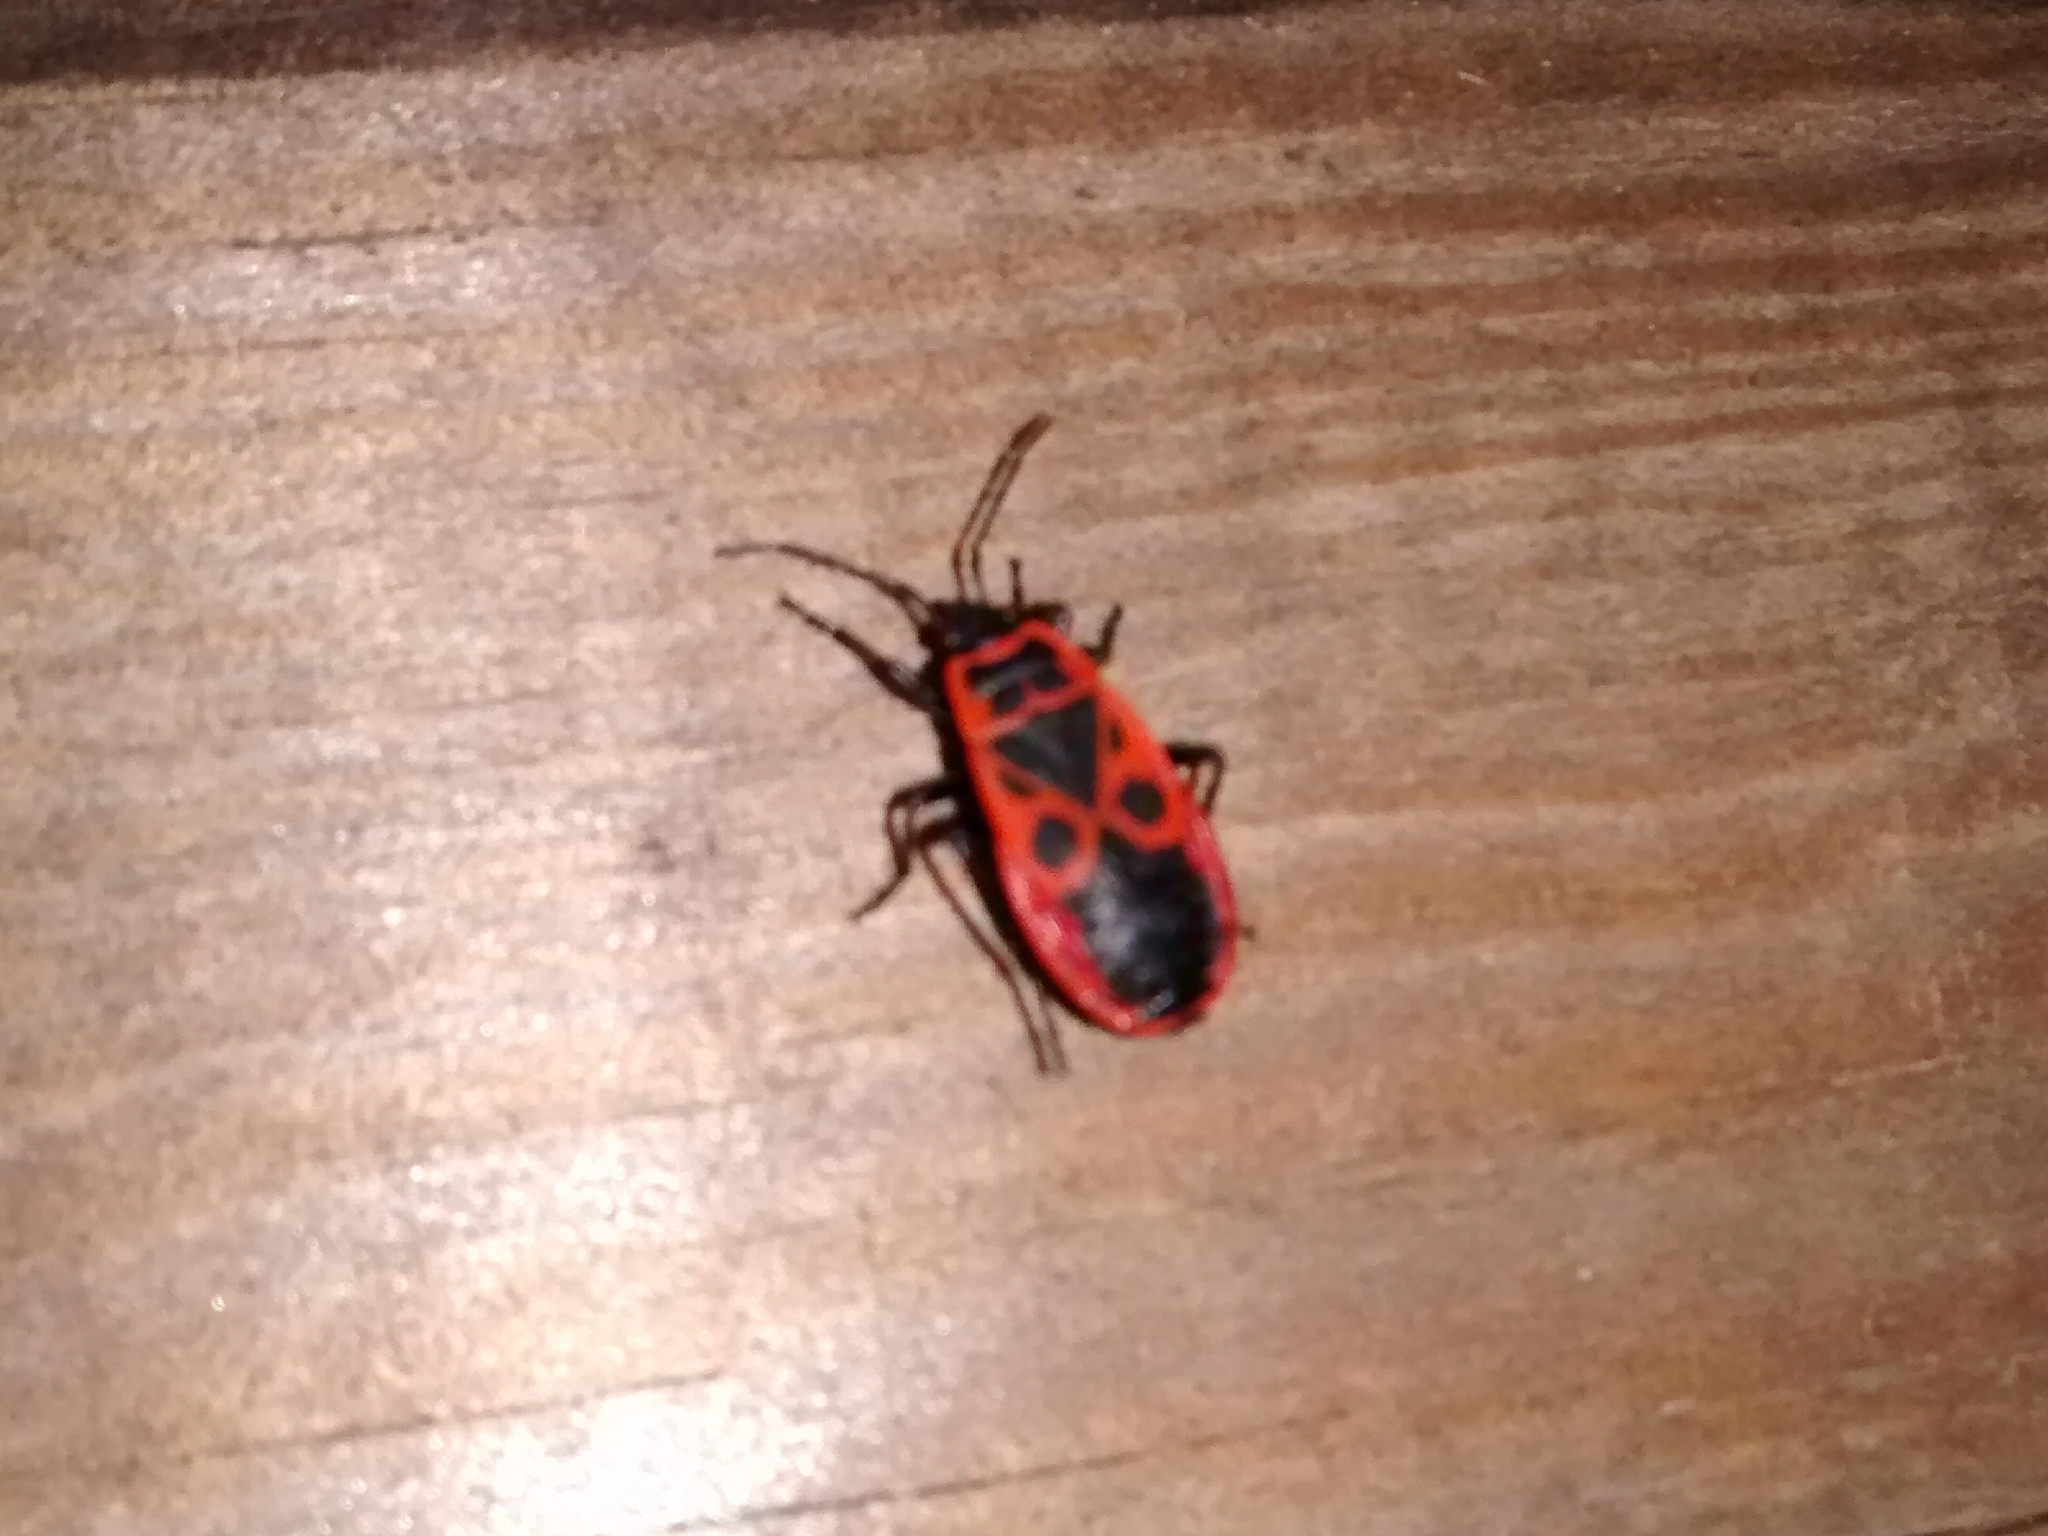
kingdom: Animalia
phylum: Arthropoda
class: Insecta
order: Hemiptera
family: Pyrrhocoridae
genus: Pyrrhocoris
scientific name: Pyrrhocoris apterus
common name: Firebug
